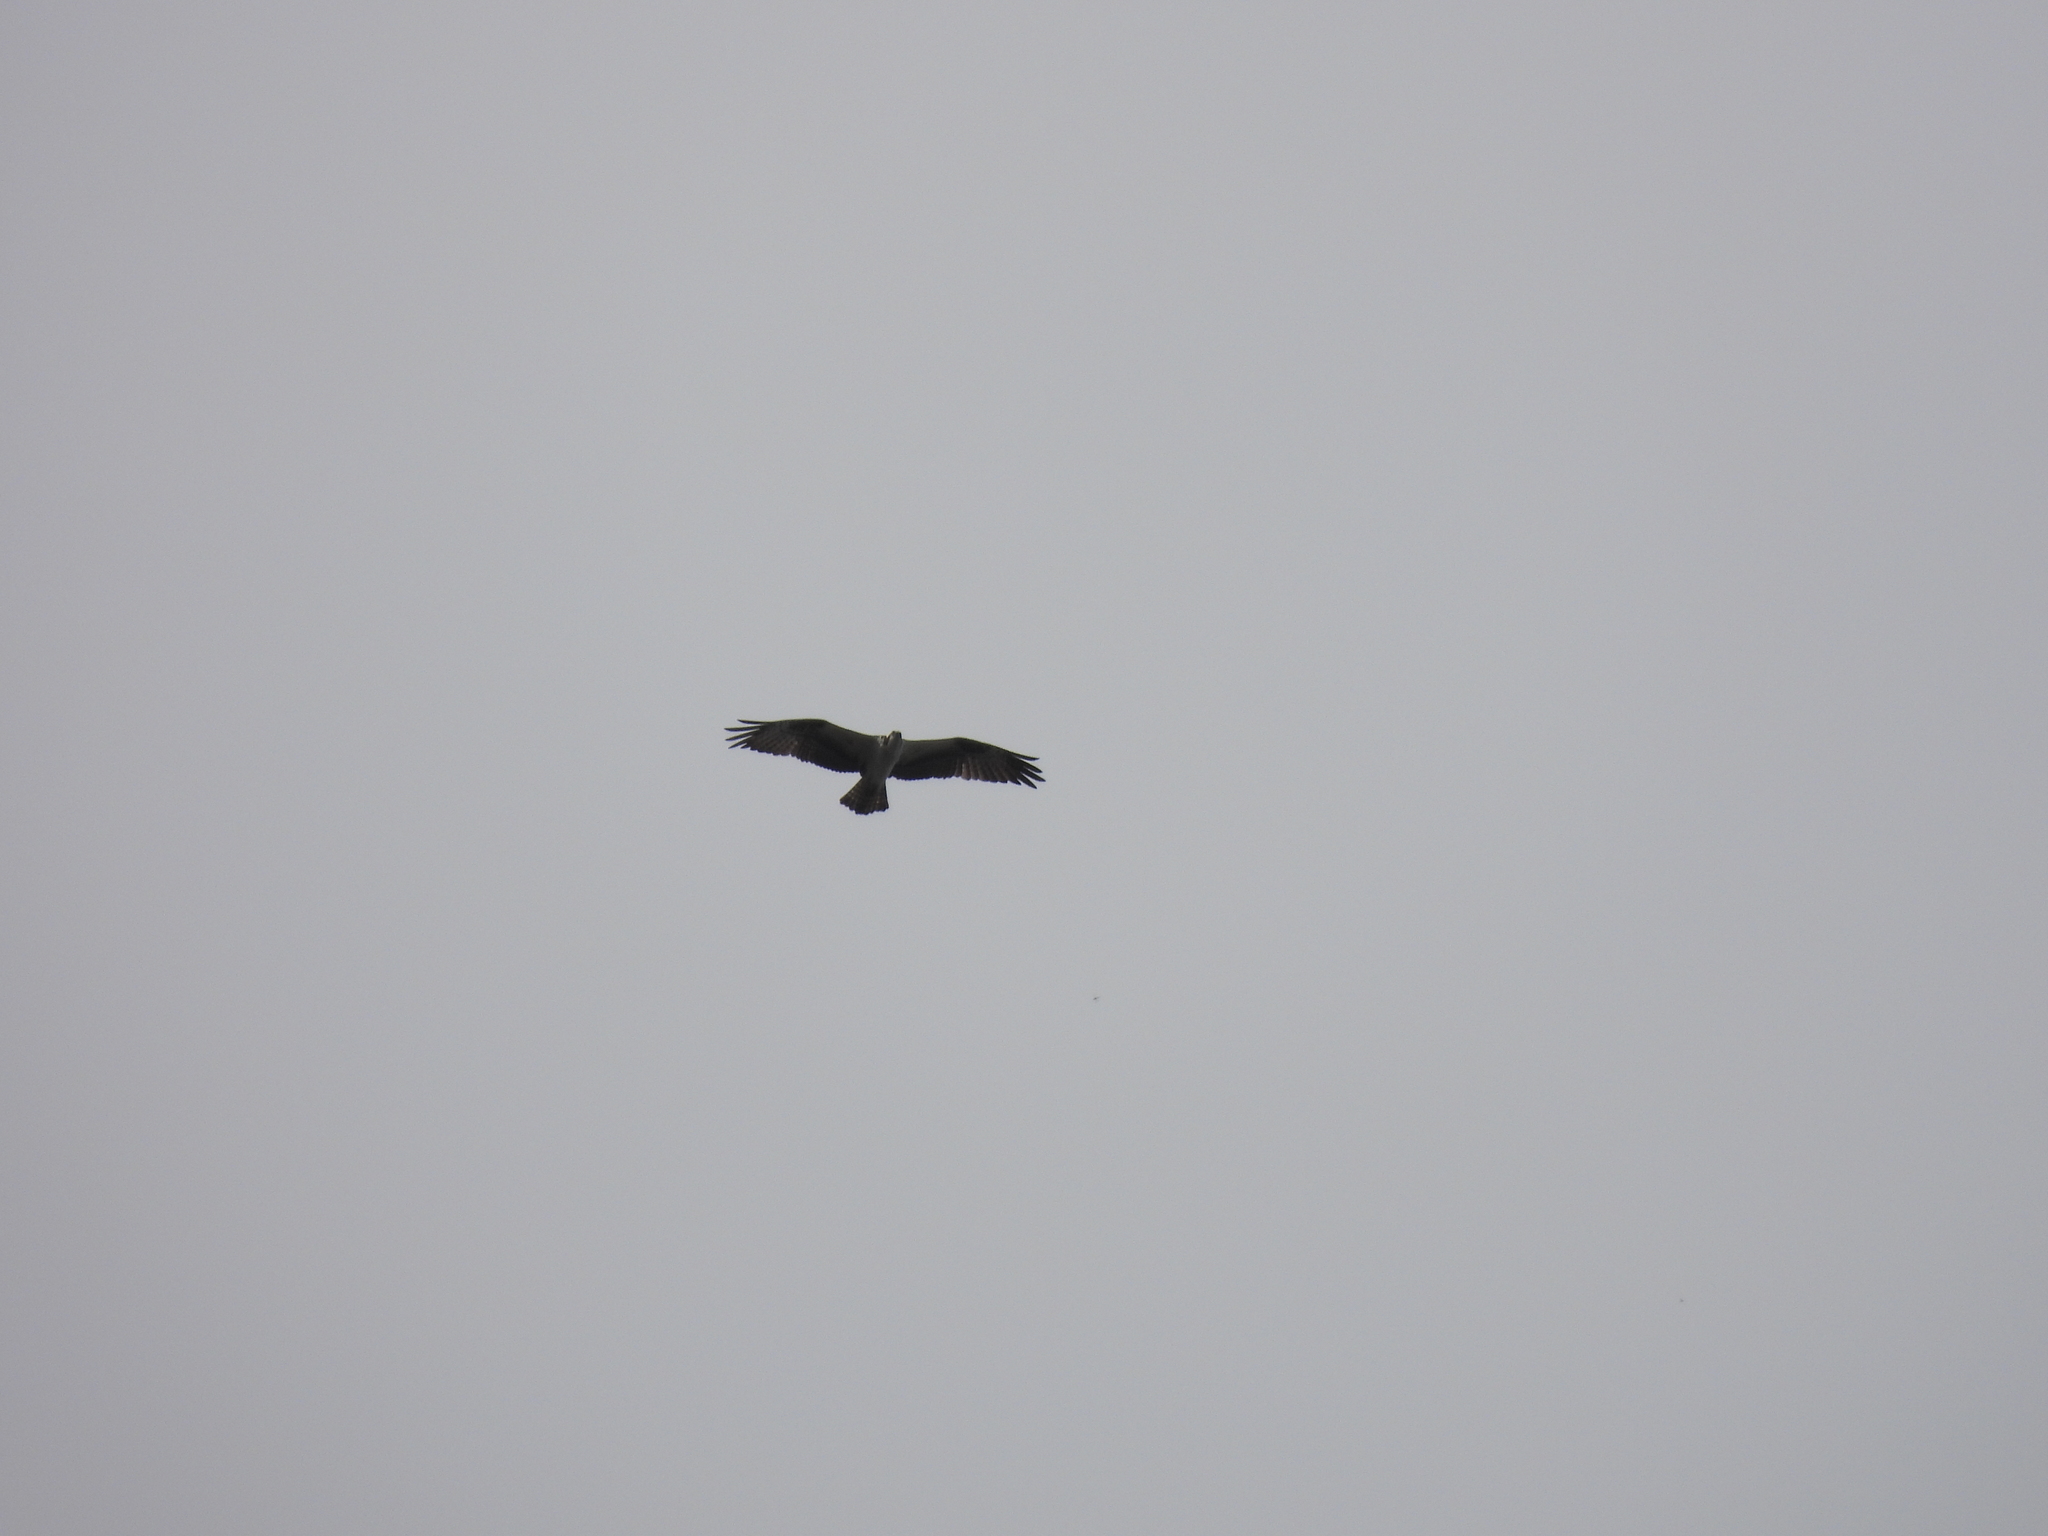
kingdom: Animalia
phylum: Chordata
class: Aves
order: Accipitriformes
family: Pandionidae
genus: Pandion
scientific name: Pandion haliaetus
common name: Osprey
